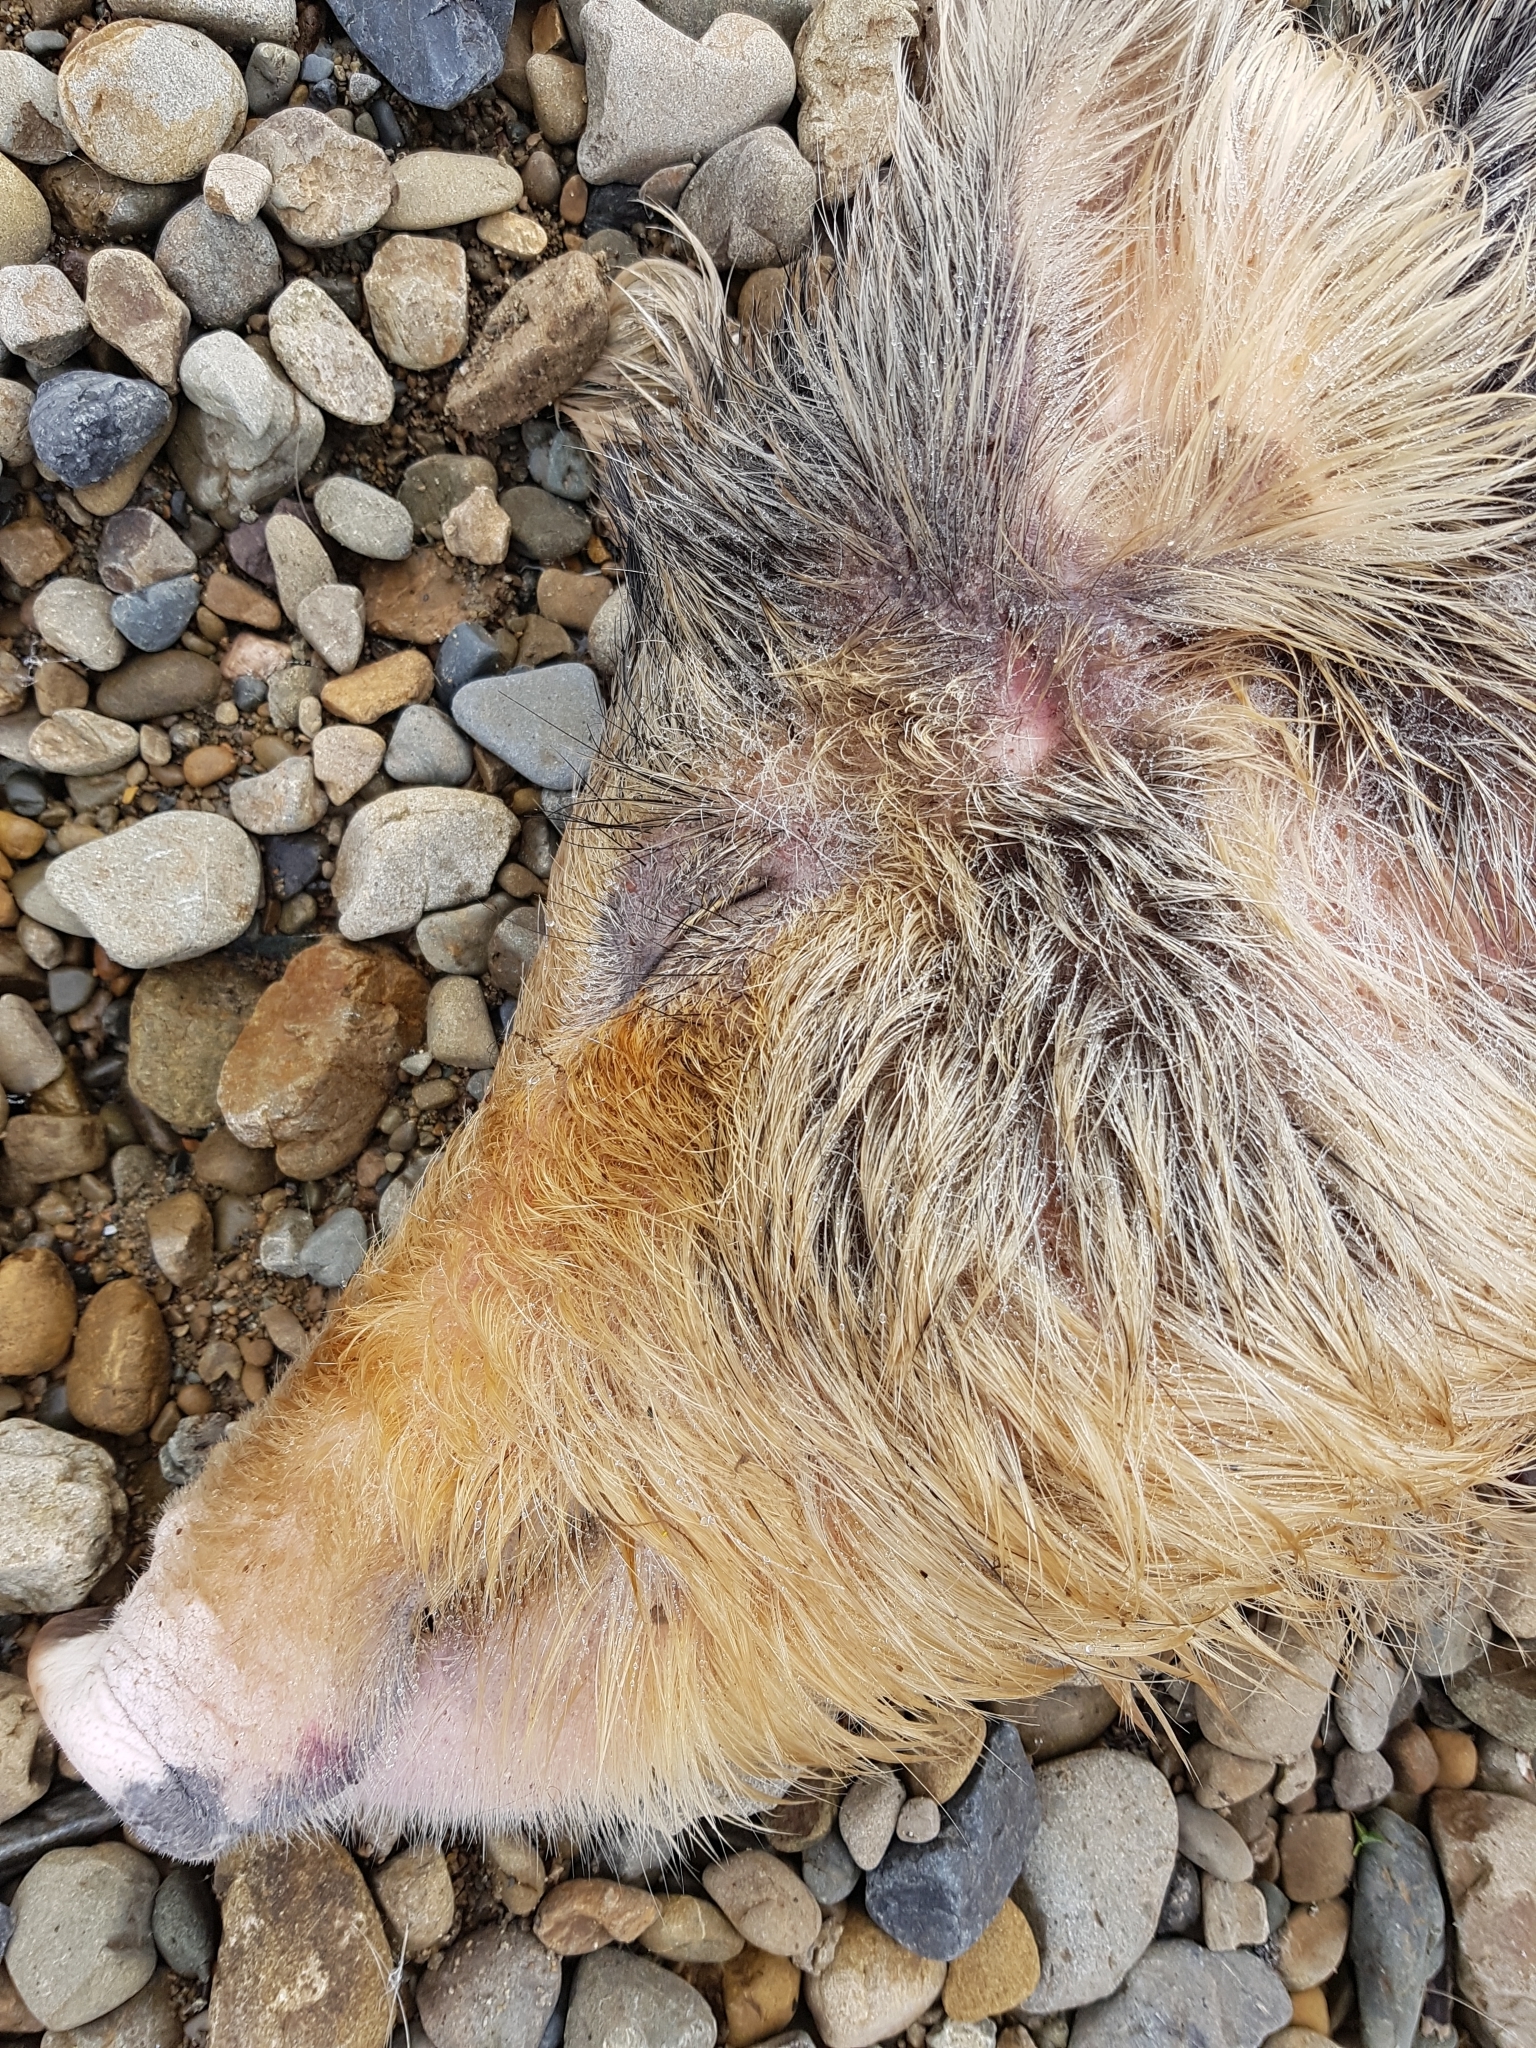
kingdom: Animalia
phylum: Chordata
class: Mammalia
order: Artiodactyla
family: Suidae
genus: Sus
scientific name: Sus scrofa
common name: Wild boar
